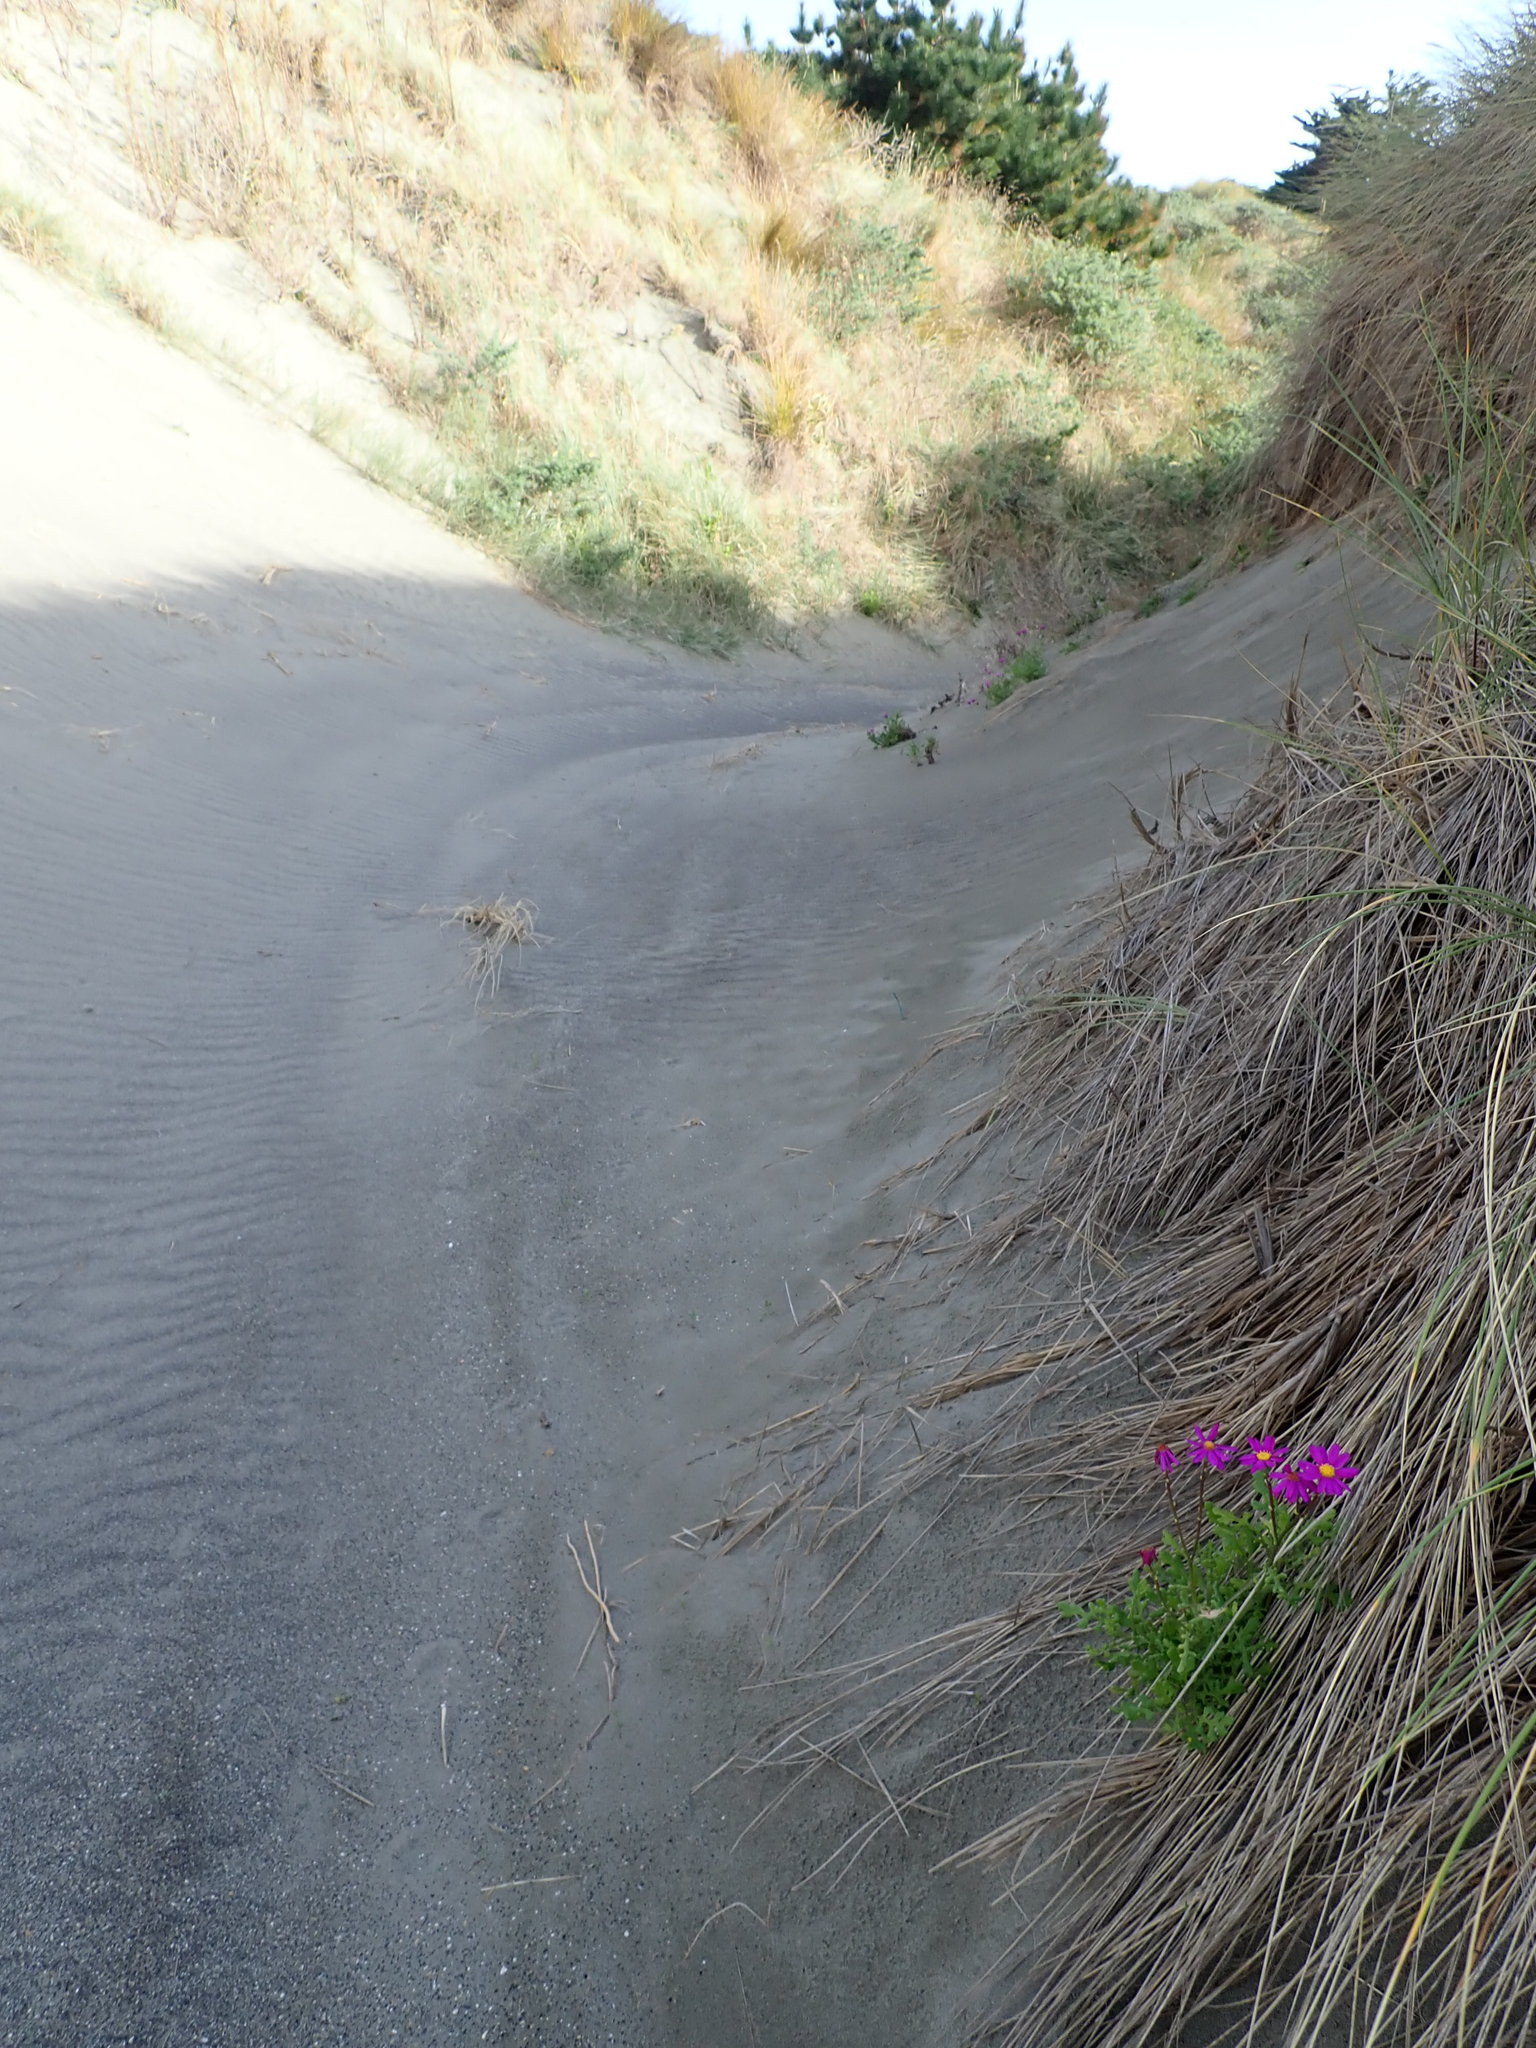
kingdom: Plantae
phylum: Tracheophyta
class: Magnoliopsida
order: Asterales
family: Asteraceae
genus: Senecio
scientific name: Senecio elegans
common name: Purple groundsel
